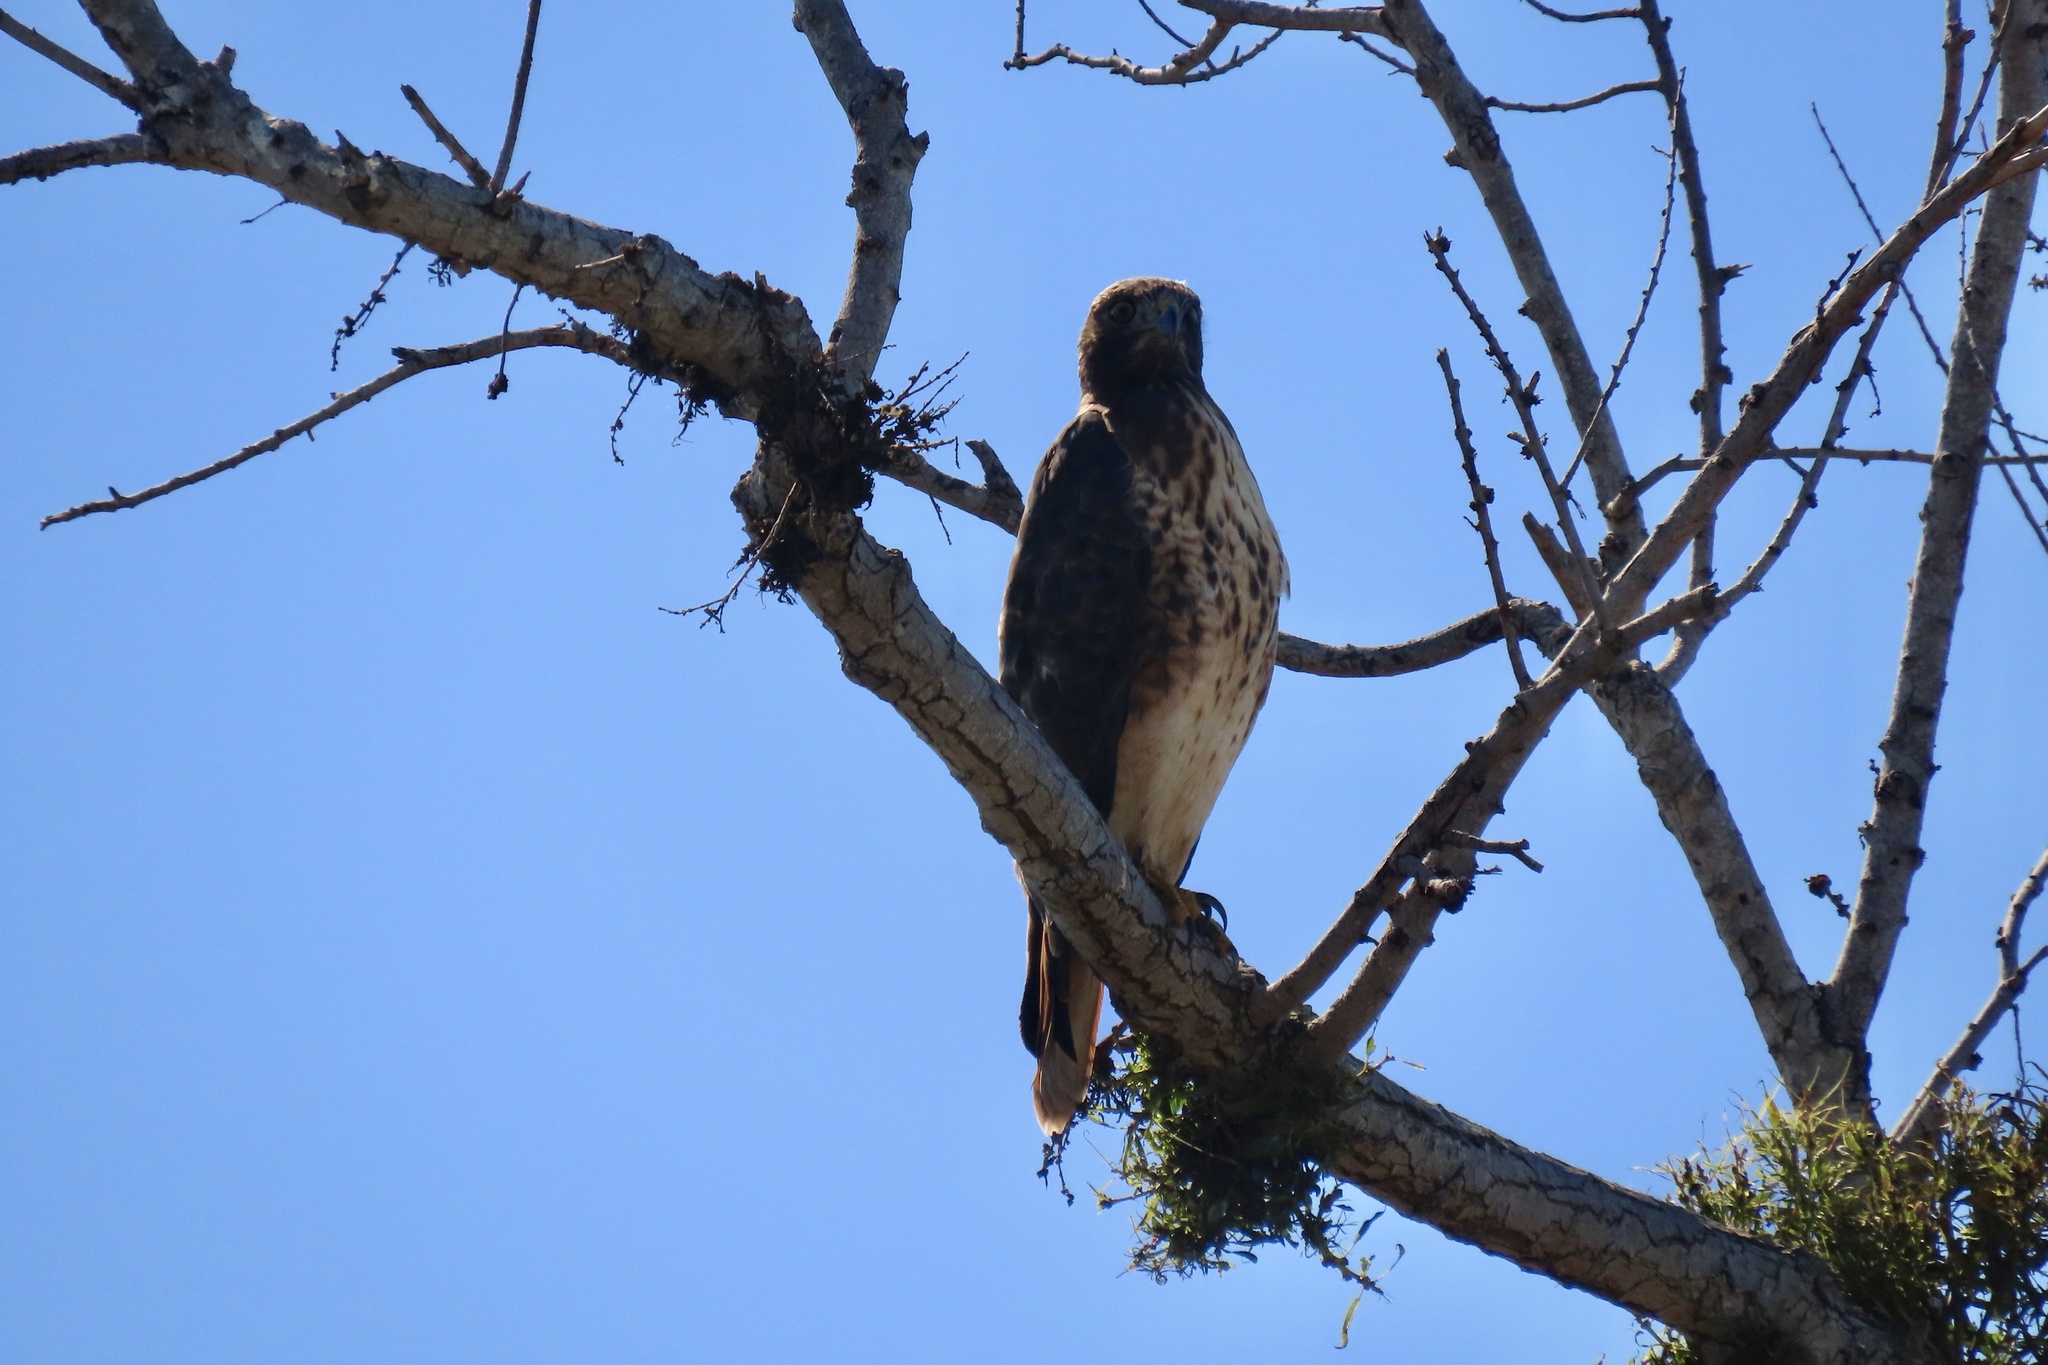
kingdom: Animalia
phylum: Chordata
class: Aves
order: Accipitriformes
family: Accipitridae
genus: Buteo
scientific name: Buteo jamaicensis
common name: Red-tailed hawk
